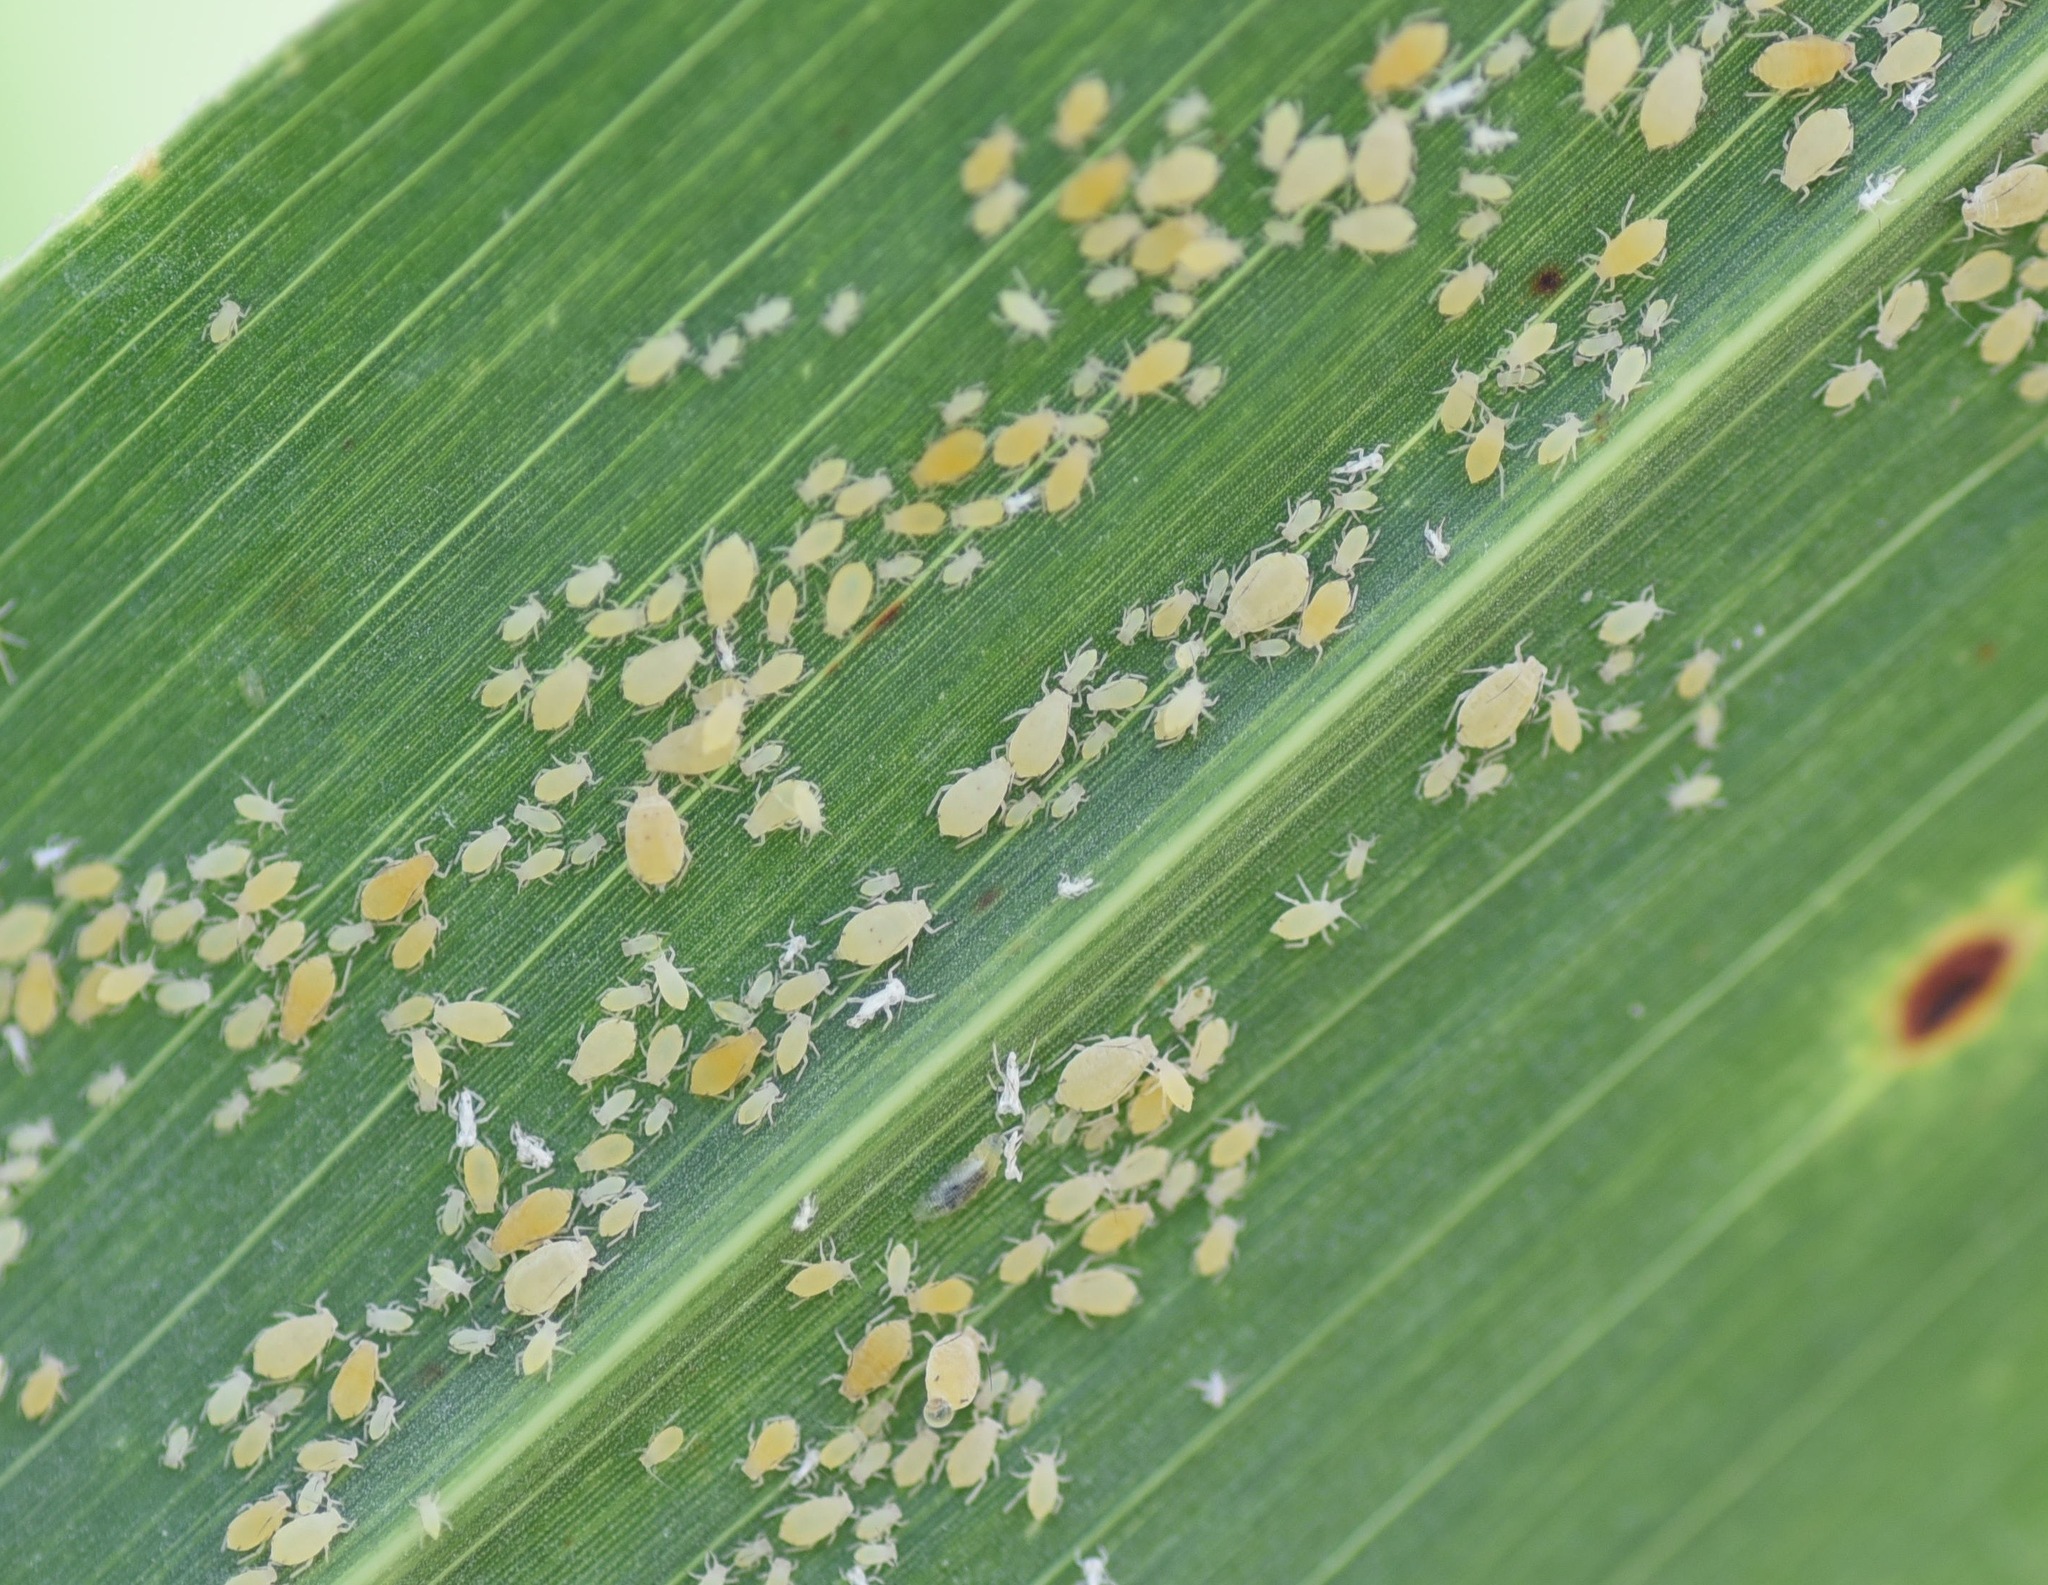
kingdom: Animalia
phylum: Arthropoda
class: Insecta
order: Hemiptera
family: Aphididae
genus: Melanaphis
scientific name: Melanaphis sacchari
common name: Sugarcane aphid
